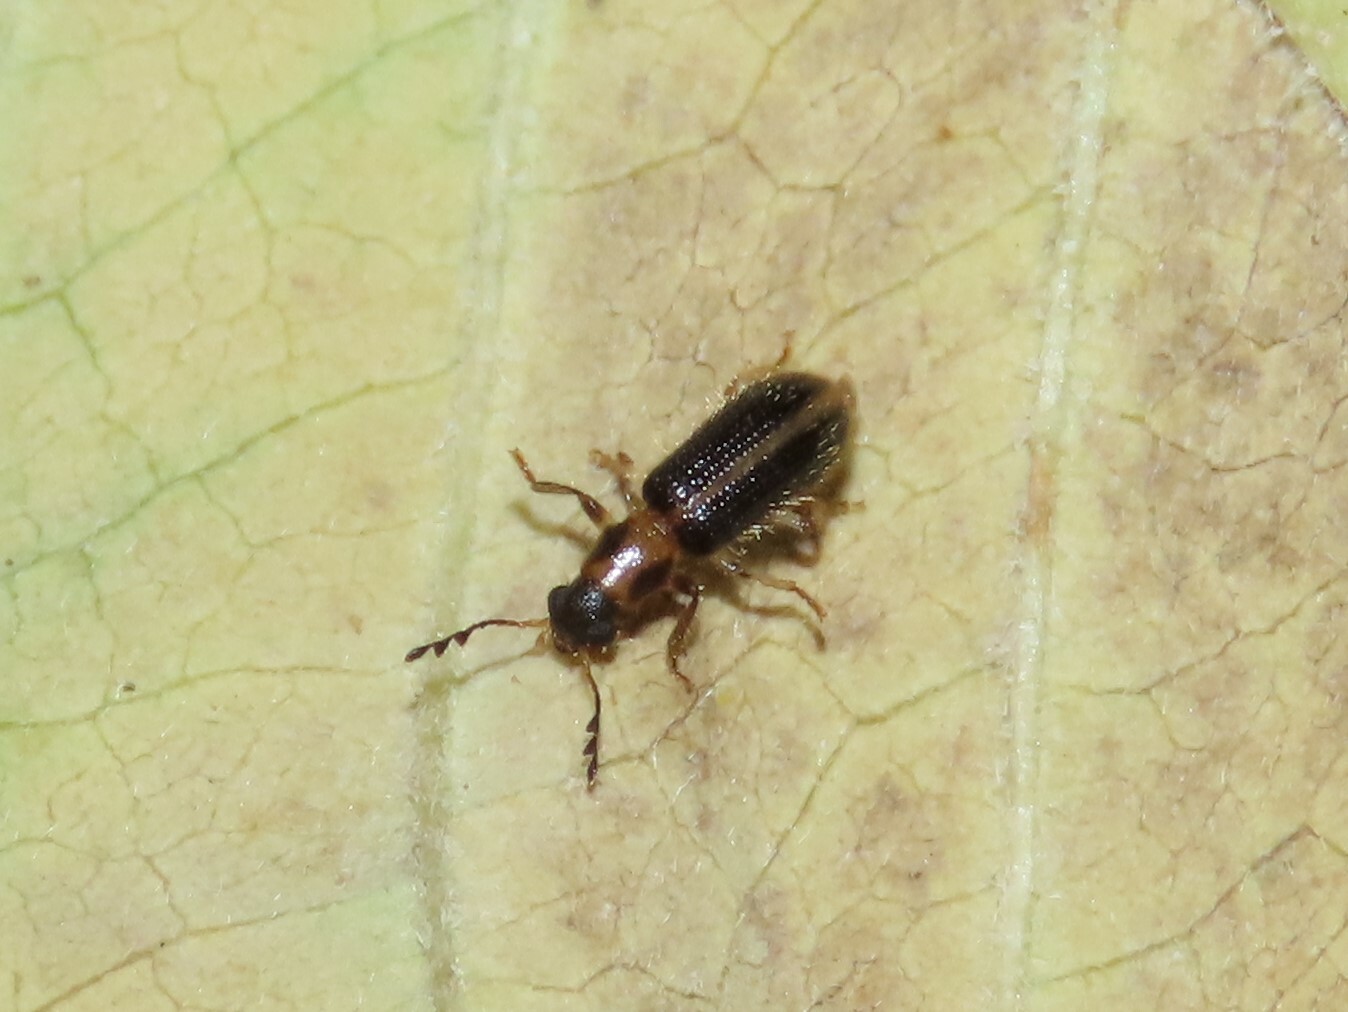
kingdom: Animalia
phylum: Arthropoda
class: Insecta
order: Coleoptera
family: Cleridae
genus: Cregya
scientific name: Cregya oculata
